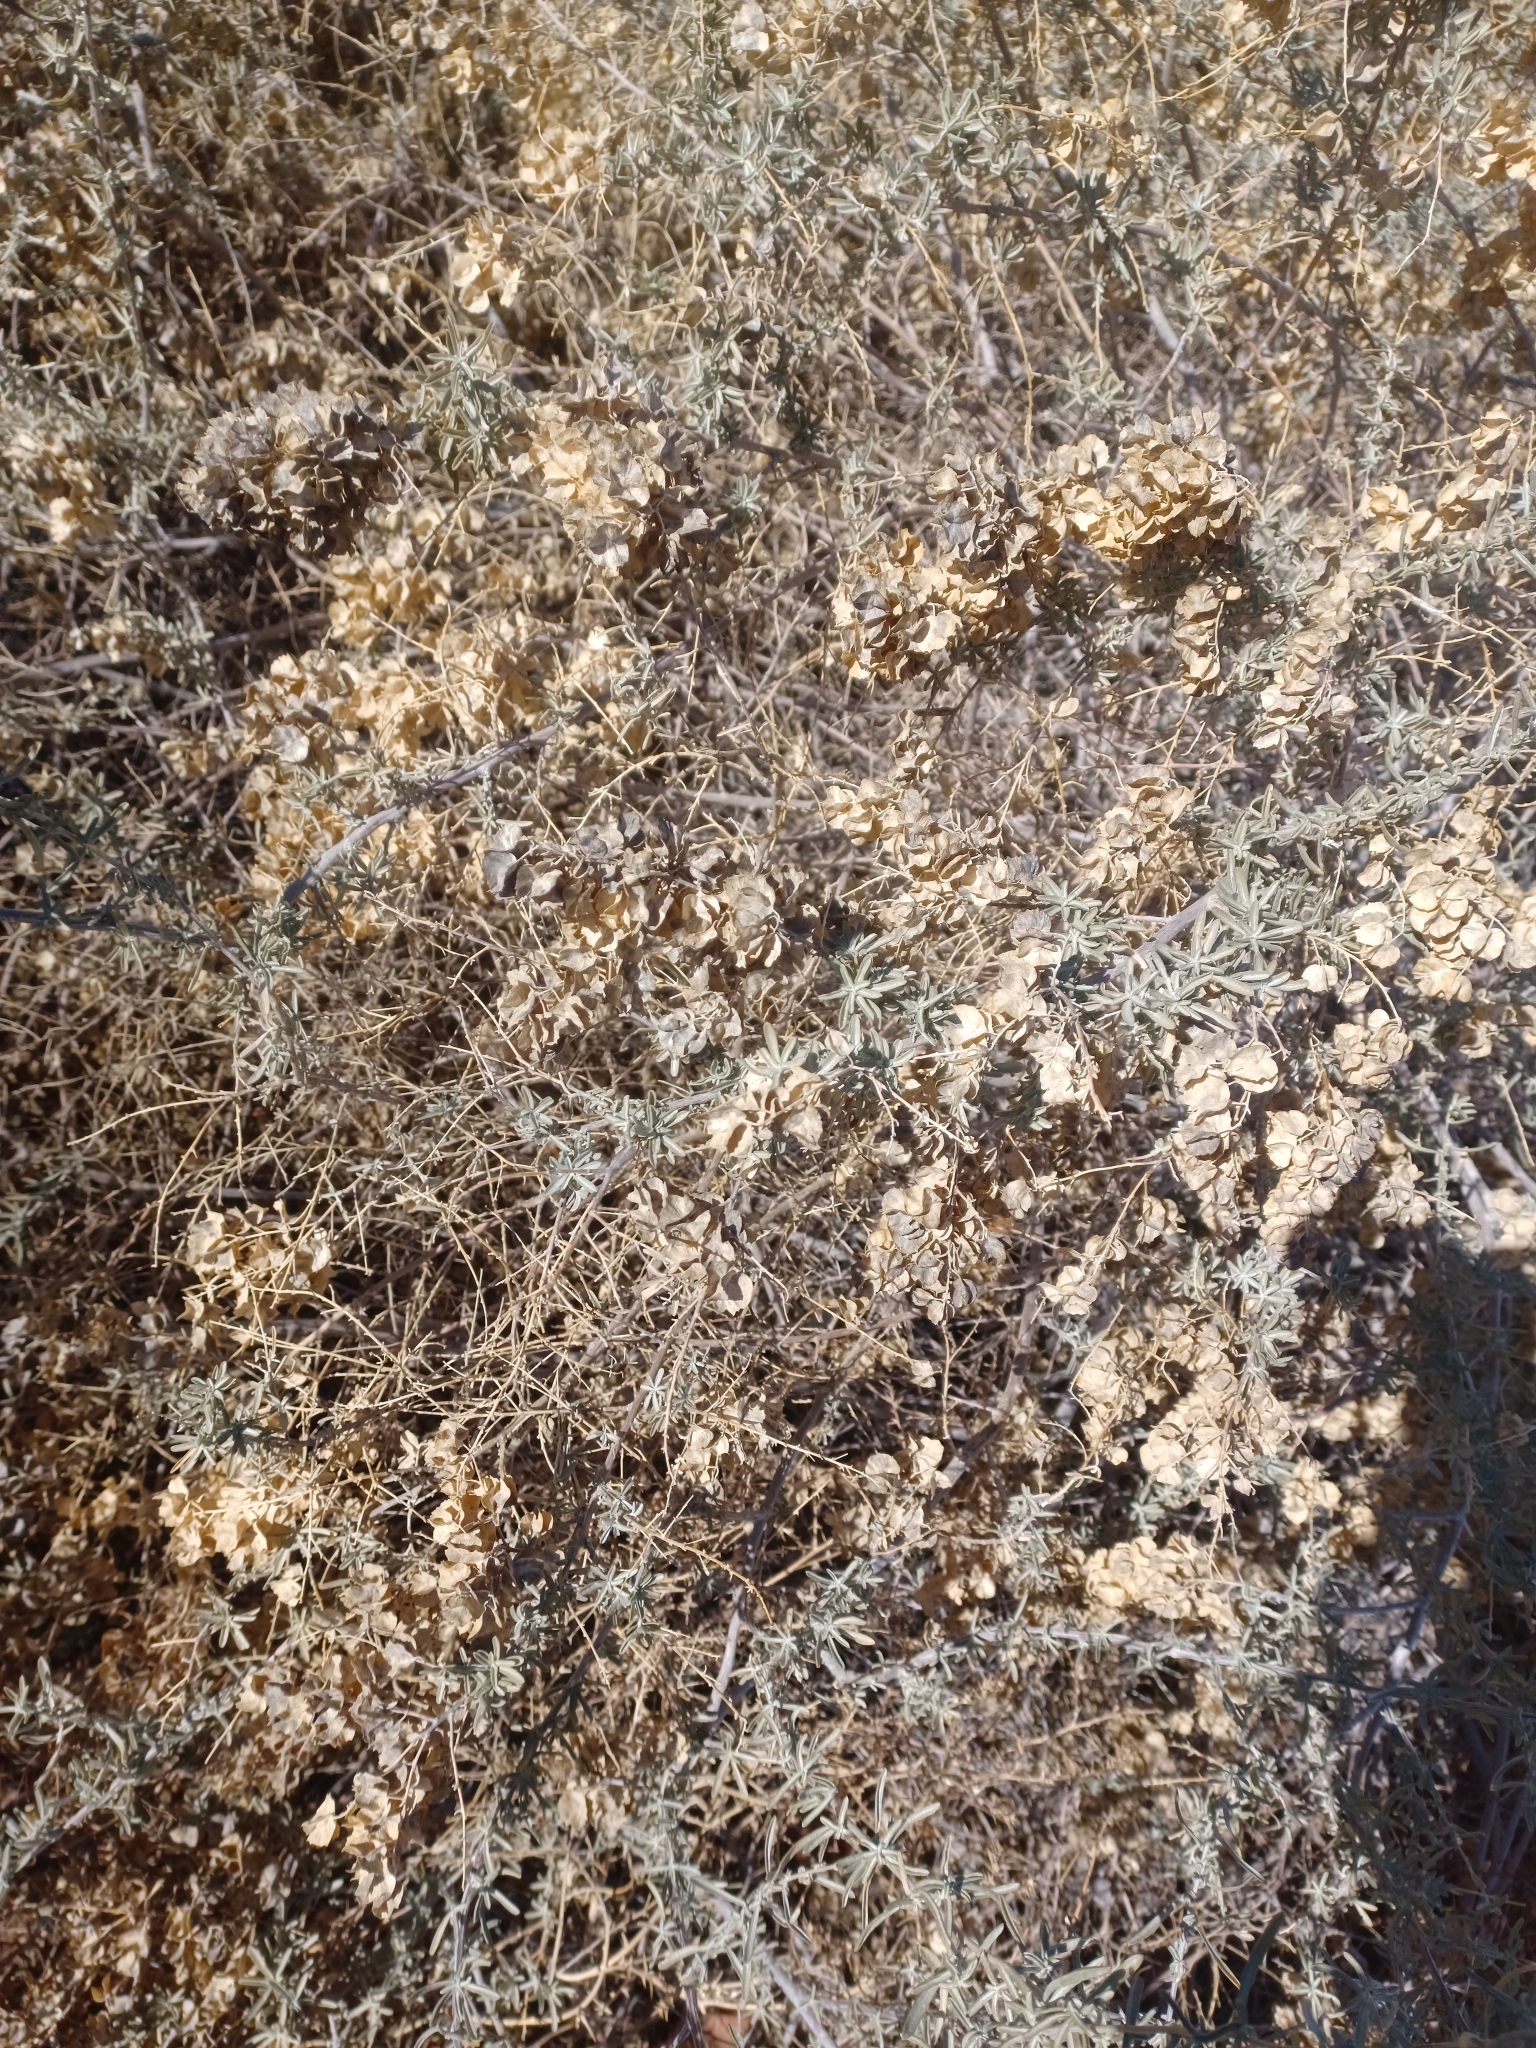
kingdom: Plantae
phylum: Tracheophyta
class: Magnoliopsida
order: Caryophyllales
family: Amaranthaceae
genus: Atriplex
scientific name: Atriplex canescens
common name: Four-wing saltbush
